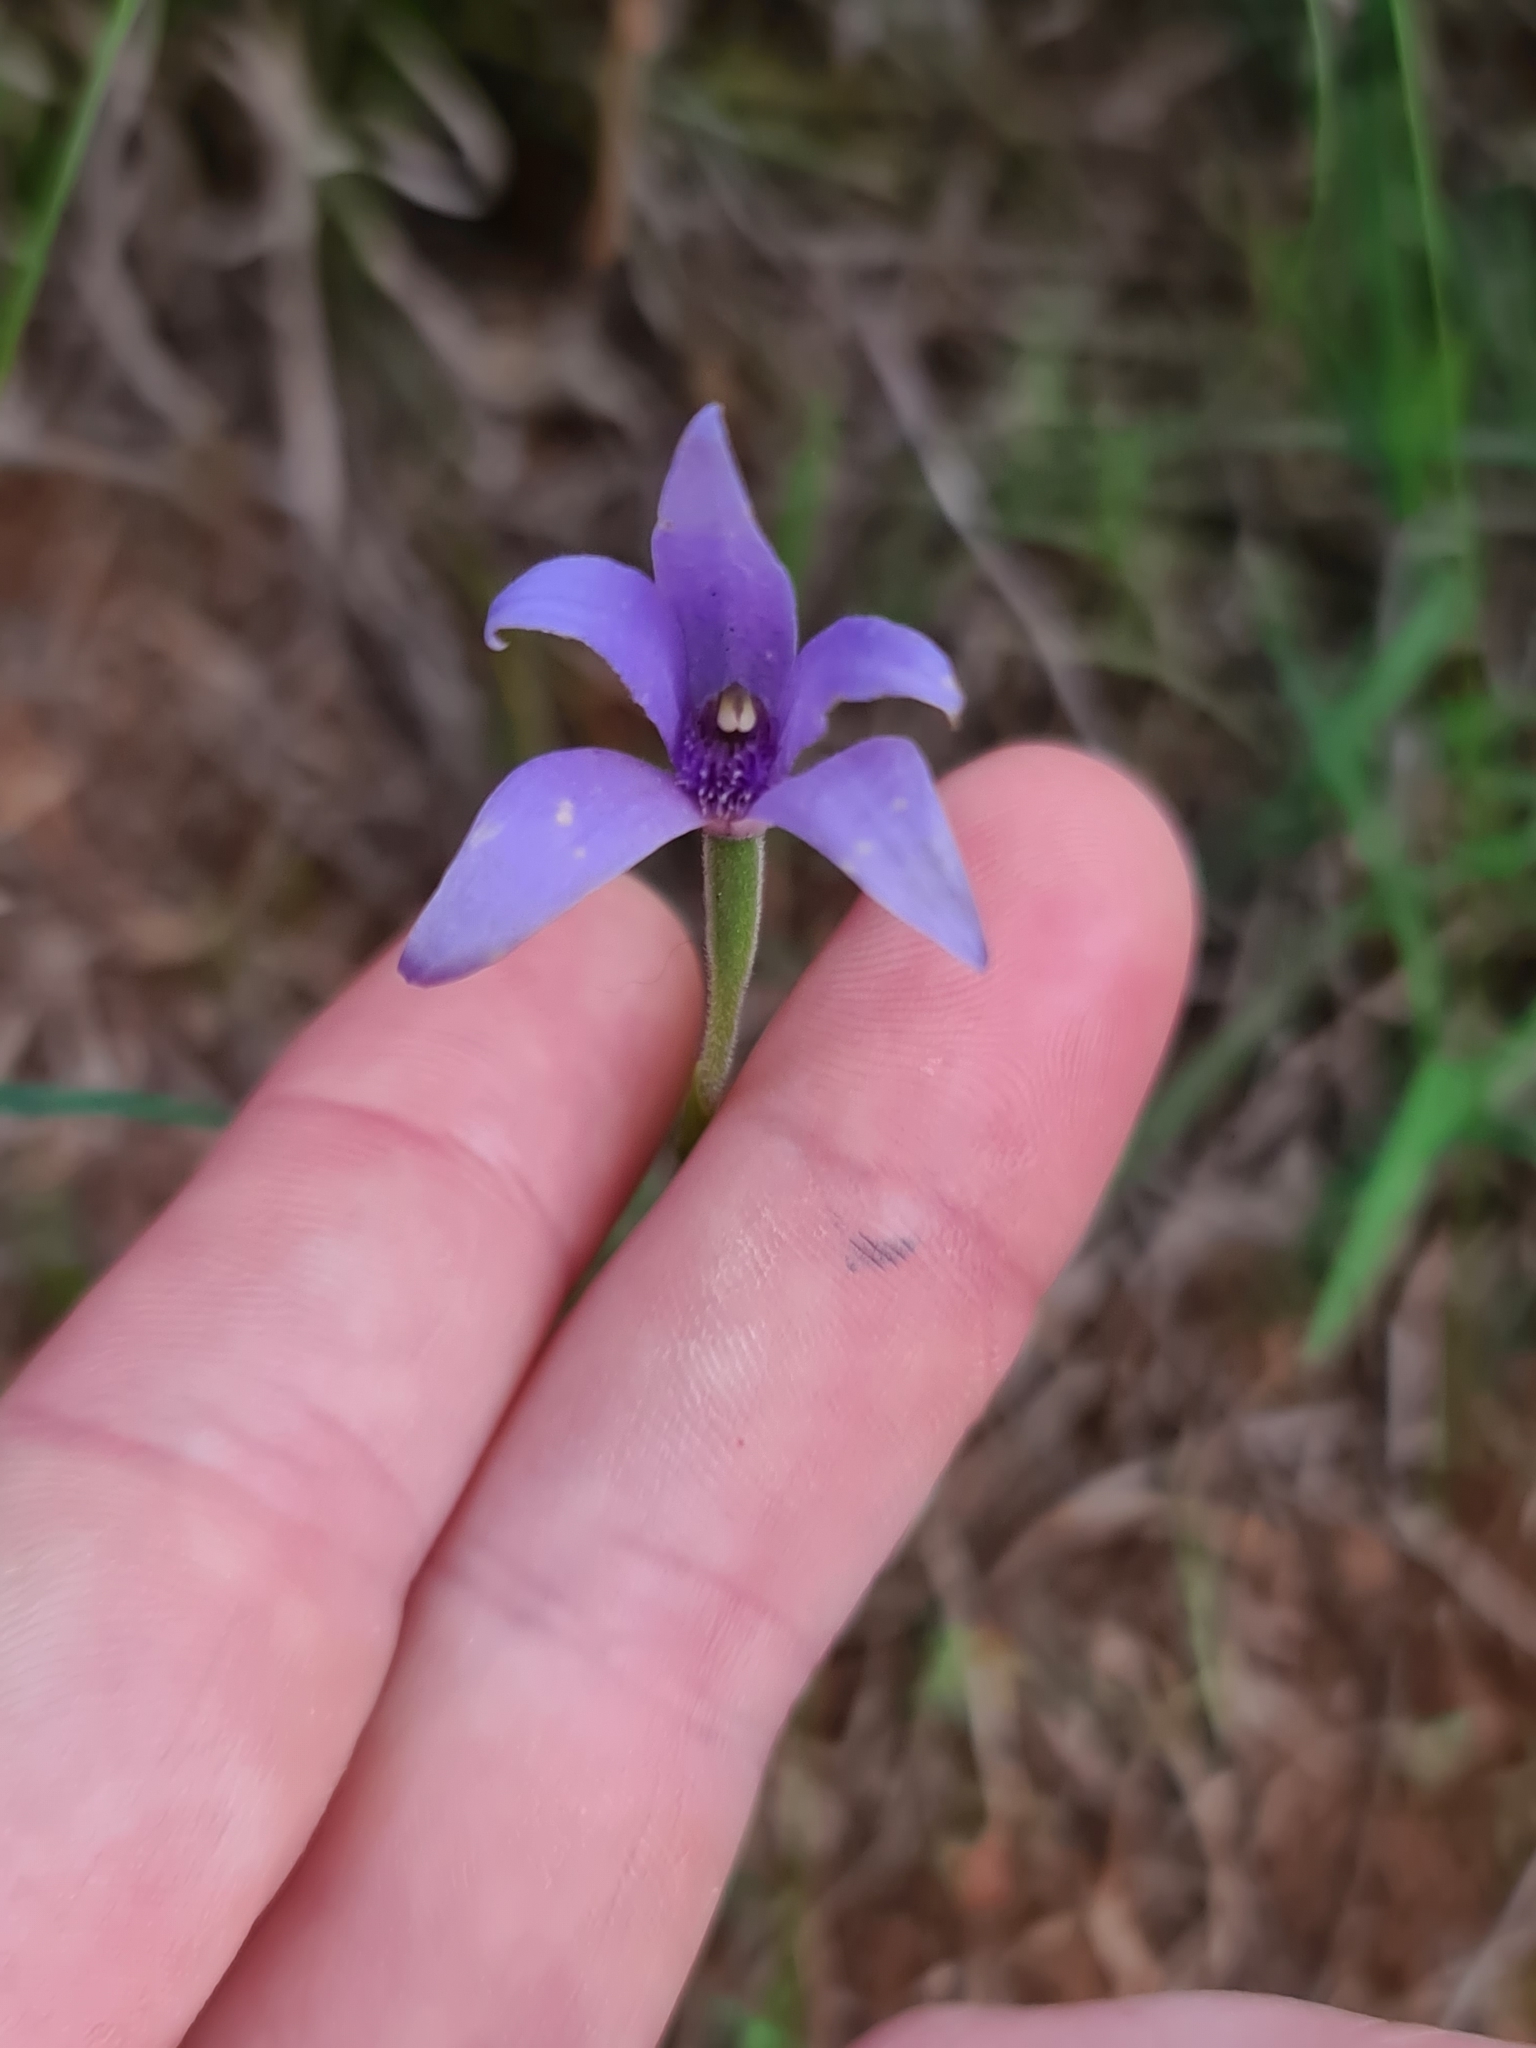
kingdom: Plantae
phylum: Tracheophyta
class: Liliopsida
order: Asparagales
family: Orchidaceae
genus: Pheladenia
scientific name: Pheladenia deformis
